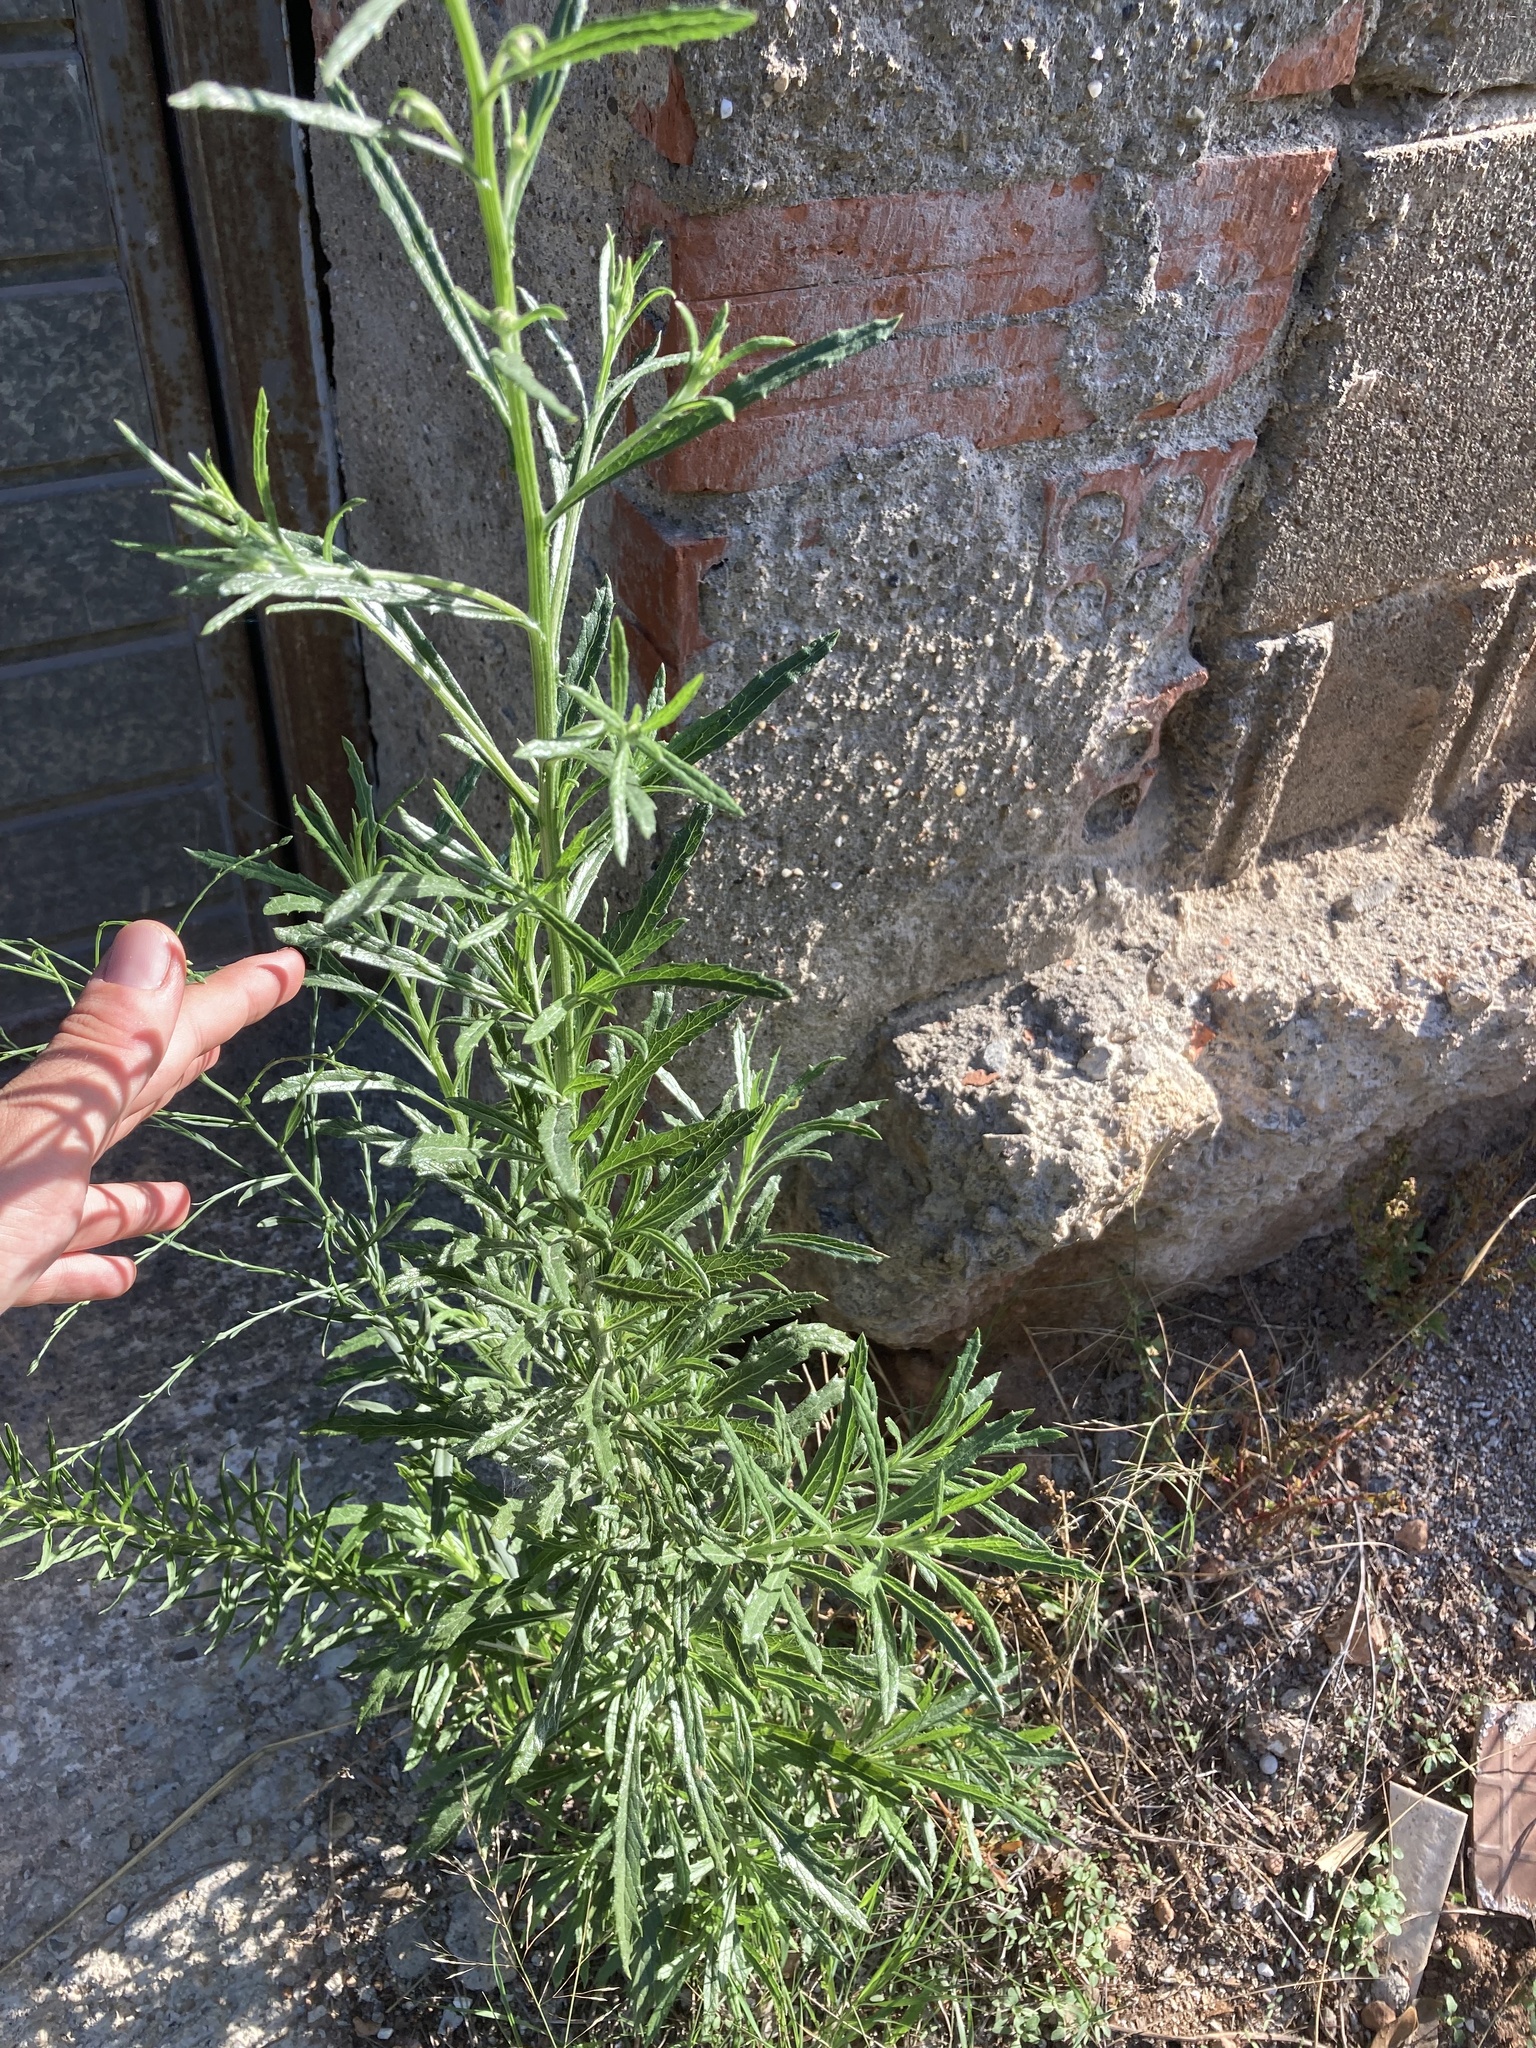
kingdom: Plantae
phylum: Tracheophyta
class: Magnoliopsida
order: Asterales
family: Asteraceae
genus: Senecio
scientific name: Senecio pterophorus
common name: Shoddy ragwort
